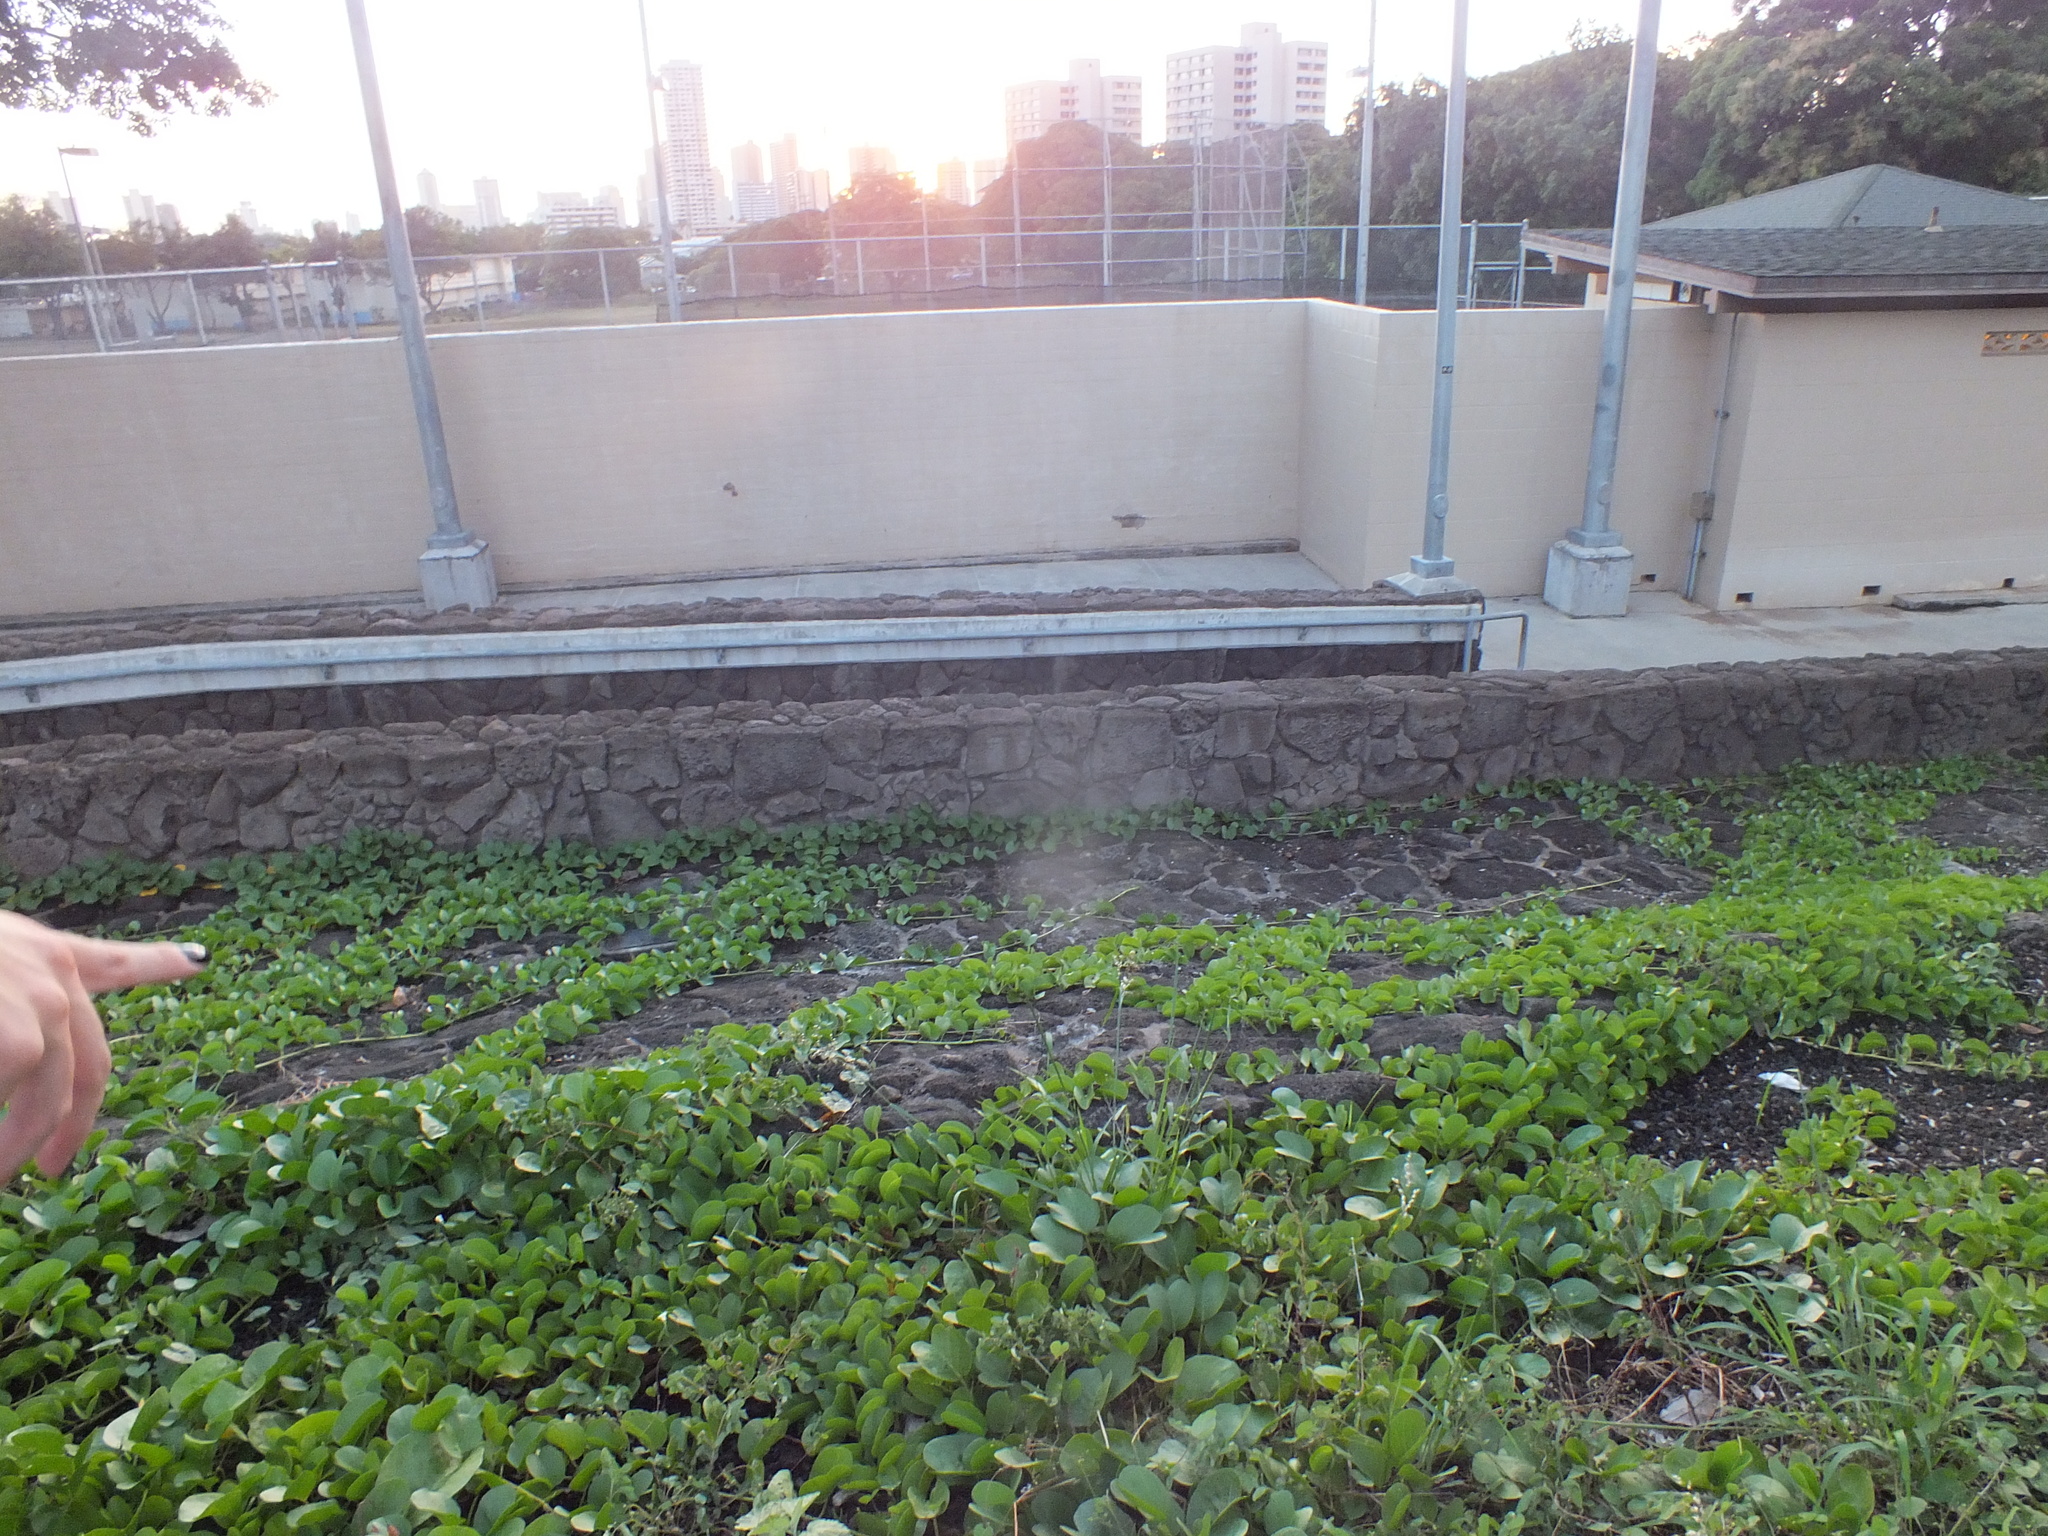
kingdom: Plantae
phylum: Tracheophyta
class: Magnoliopsida
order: Solanales
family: Convolvulaceae
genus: Ipomoea
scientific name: Ipomoea pes-caprae
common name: Beach morning glory
